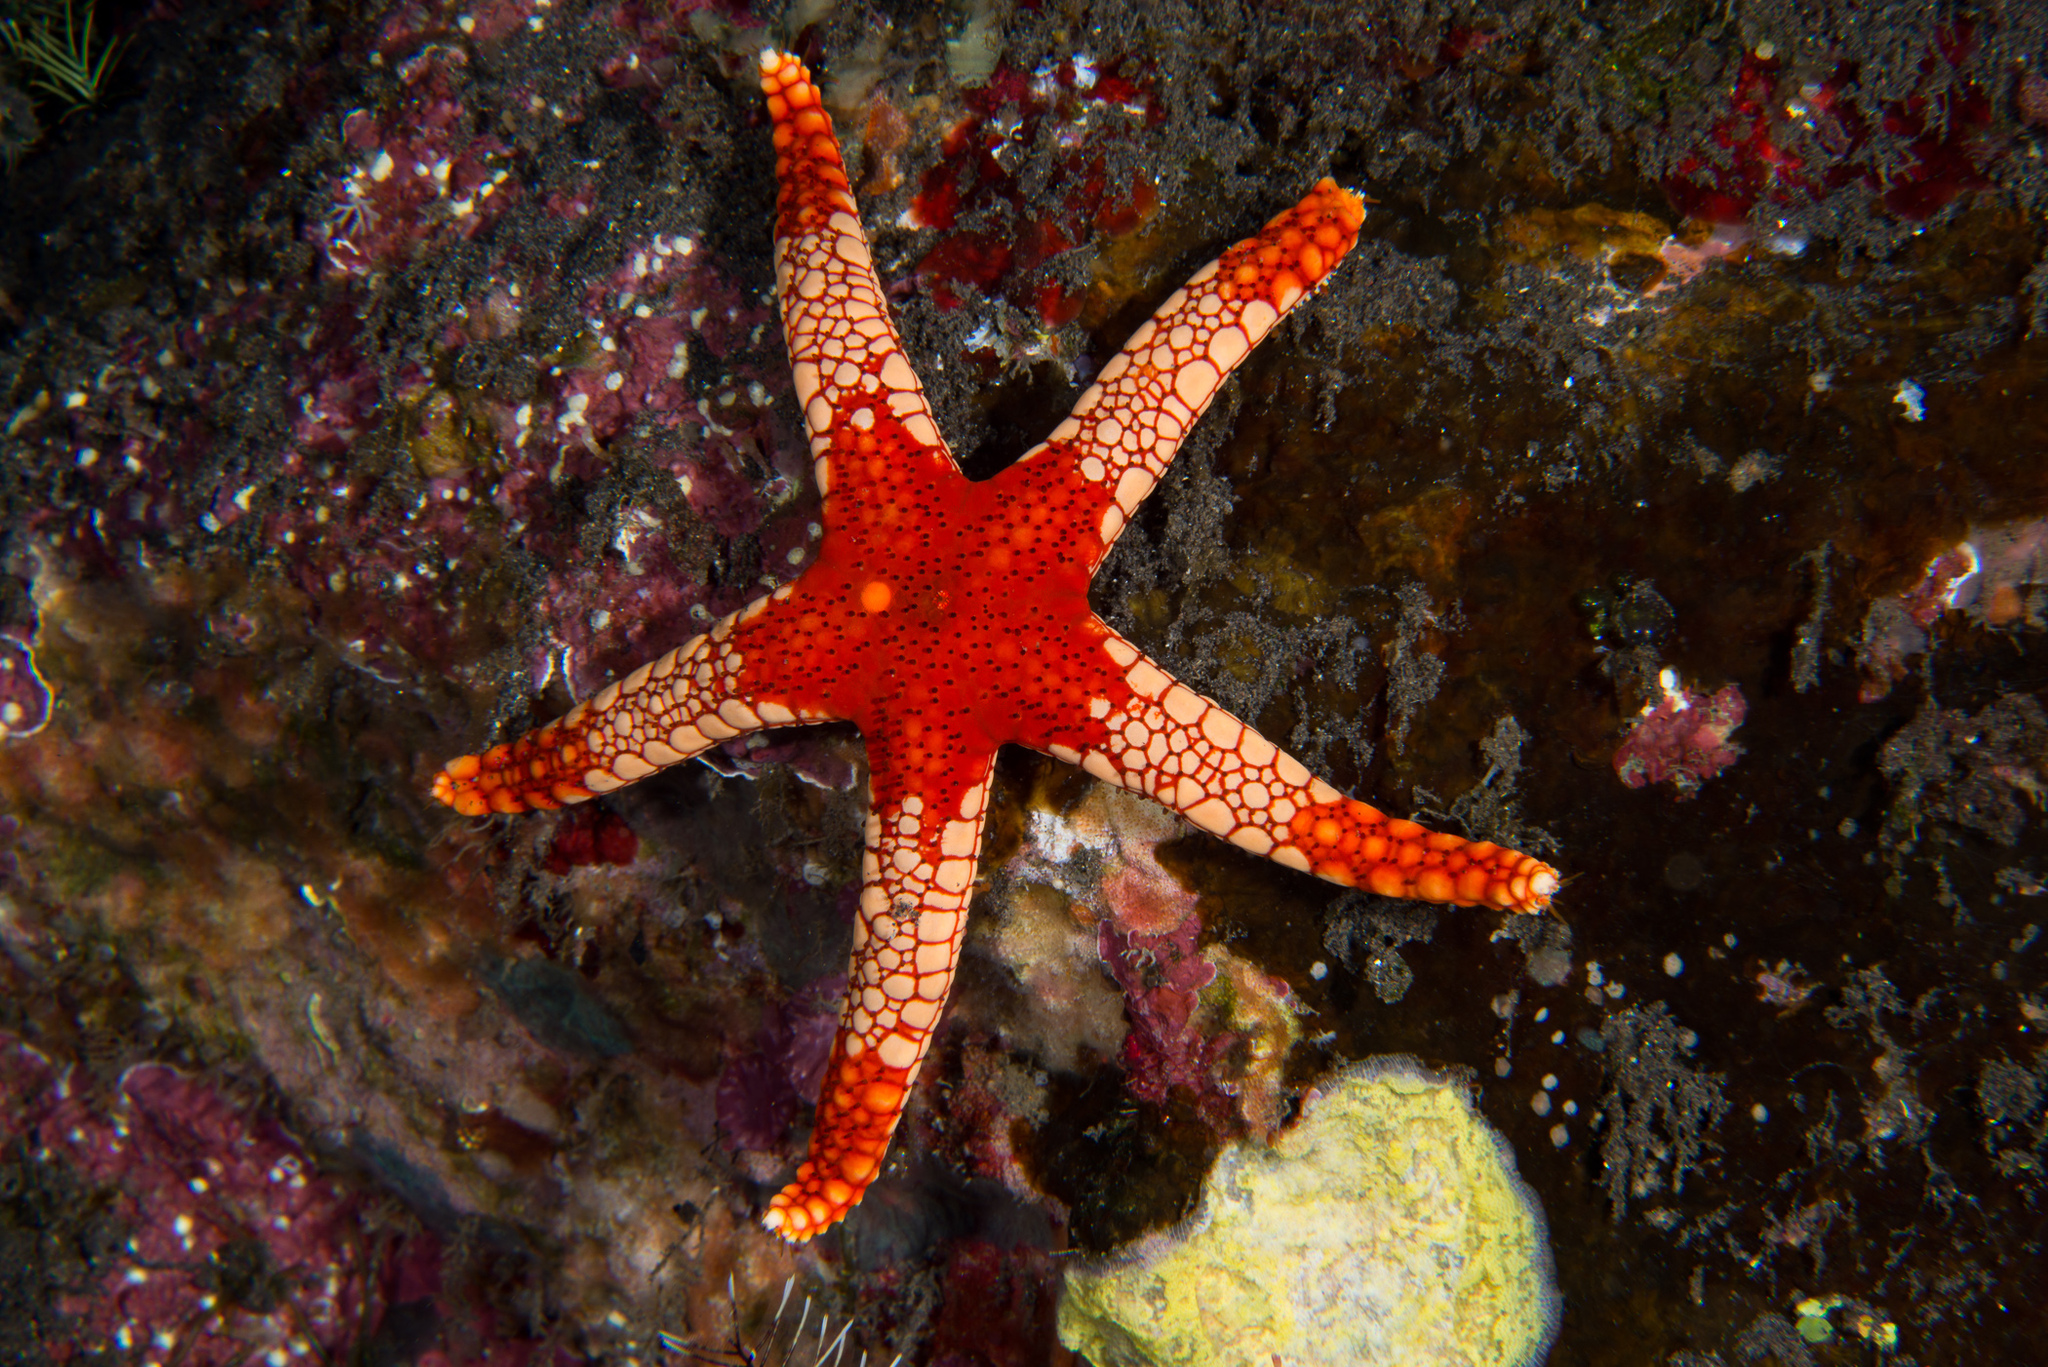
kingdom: Animalia
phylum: Echinodermata
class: Asteroidea
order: Valvatida
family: Goniasteridae
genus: Fromia
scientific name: Fromia monilis
